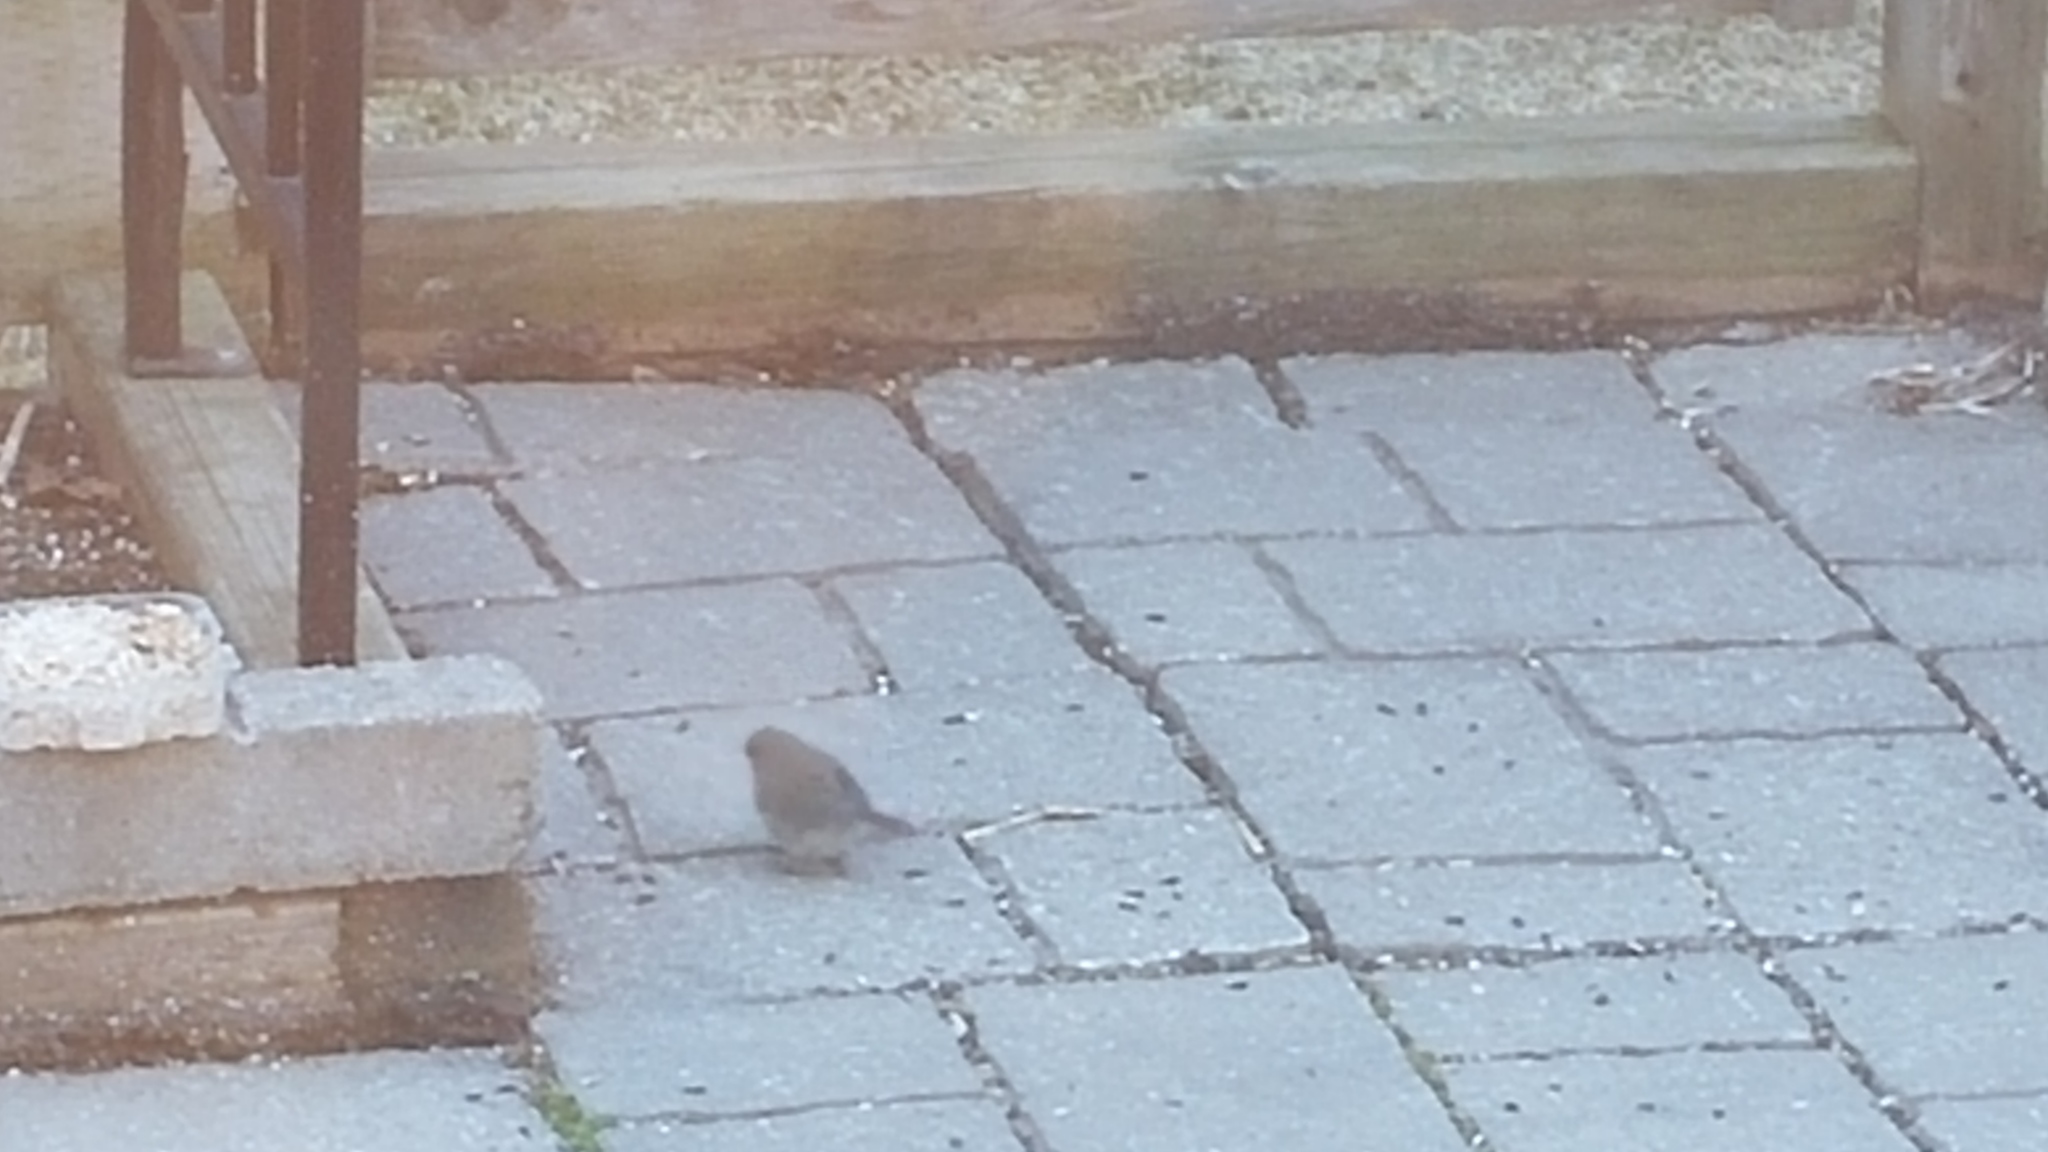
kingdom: Animalia
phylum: Chordata
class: Aves
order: Passeriformes
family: Passerellidae
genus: Junco
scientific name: Junco hyemalis
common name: Dark-eyed junco
